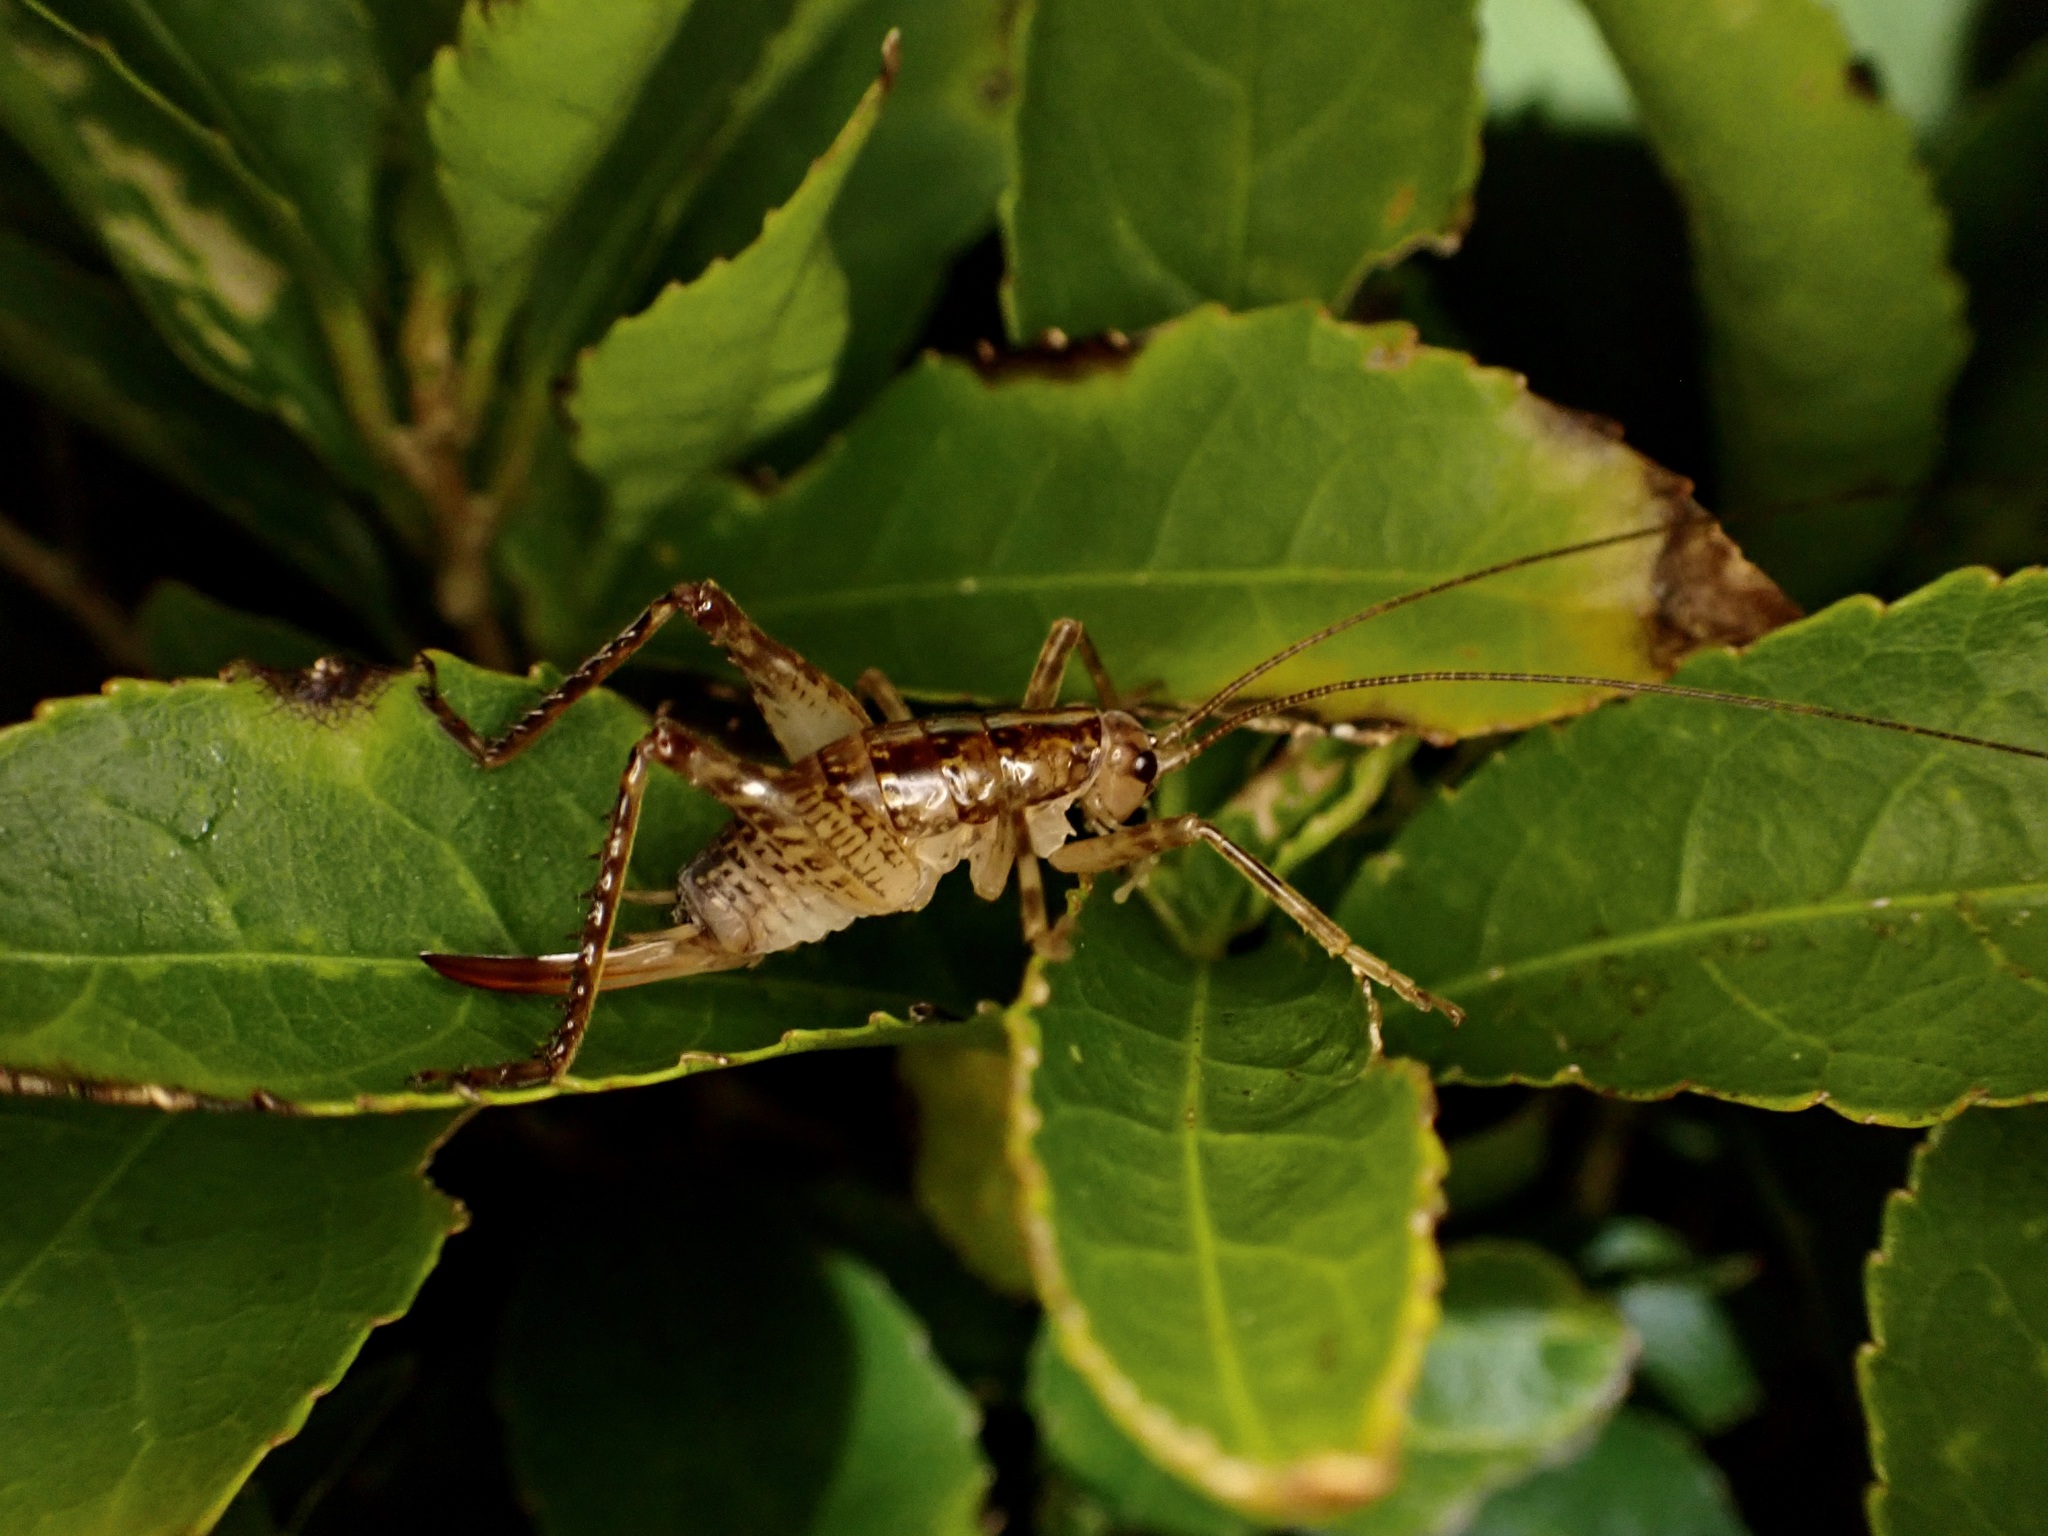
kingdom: Animalia
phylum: Arthropoda
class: Insecta
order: Orthoptera
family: Rhaphidophoridae
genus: Talitropsis
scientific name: Talitropsis sedilloti
